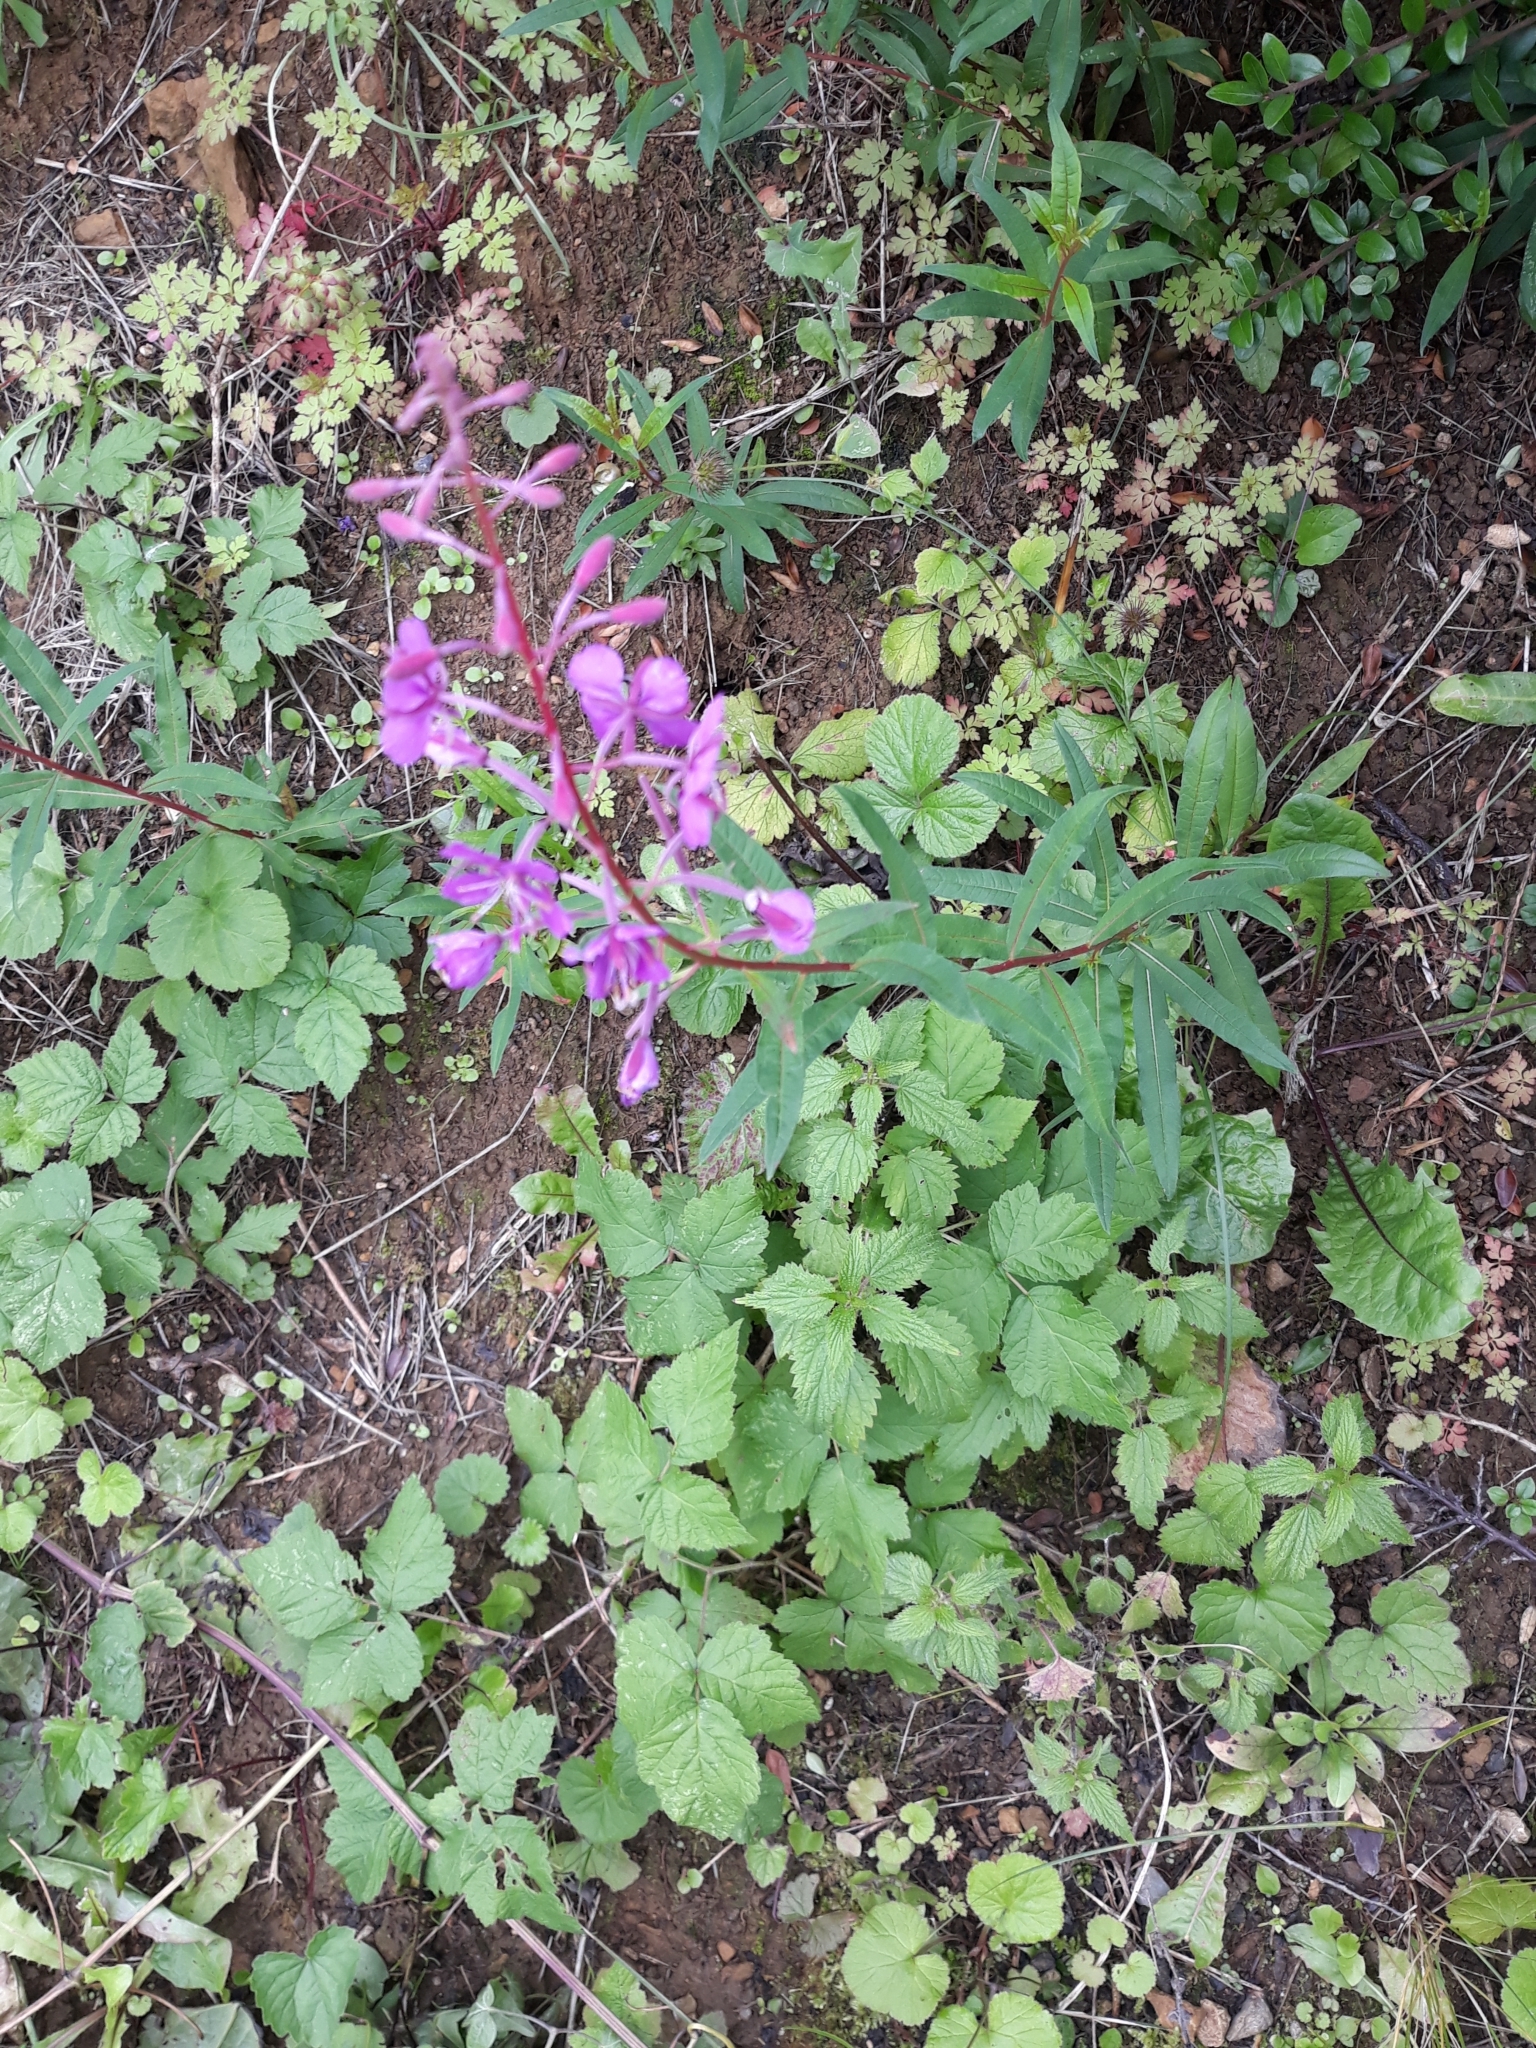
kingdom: Plantae
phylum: Tracheophyta
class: Magnoliopsida
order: Myrtales
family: Onagraceae
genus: Chamaenerion
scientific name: Chamaenerion angustifolium
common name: Fireweed
